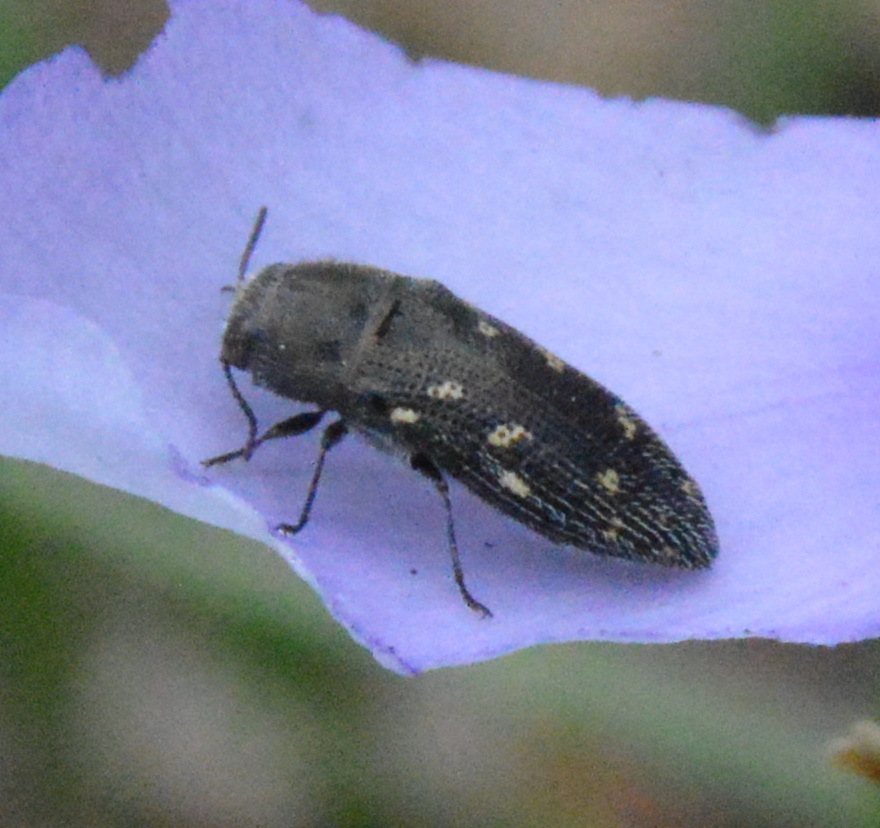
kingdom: Animalia
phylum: Arthropoda
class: Insecta
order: Coleoptera
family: Buprestidae
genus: Acmaeodera
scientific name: Acmaeodera tubulus
